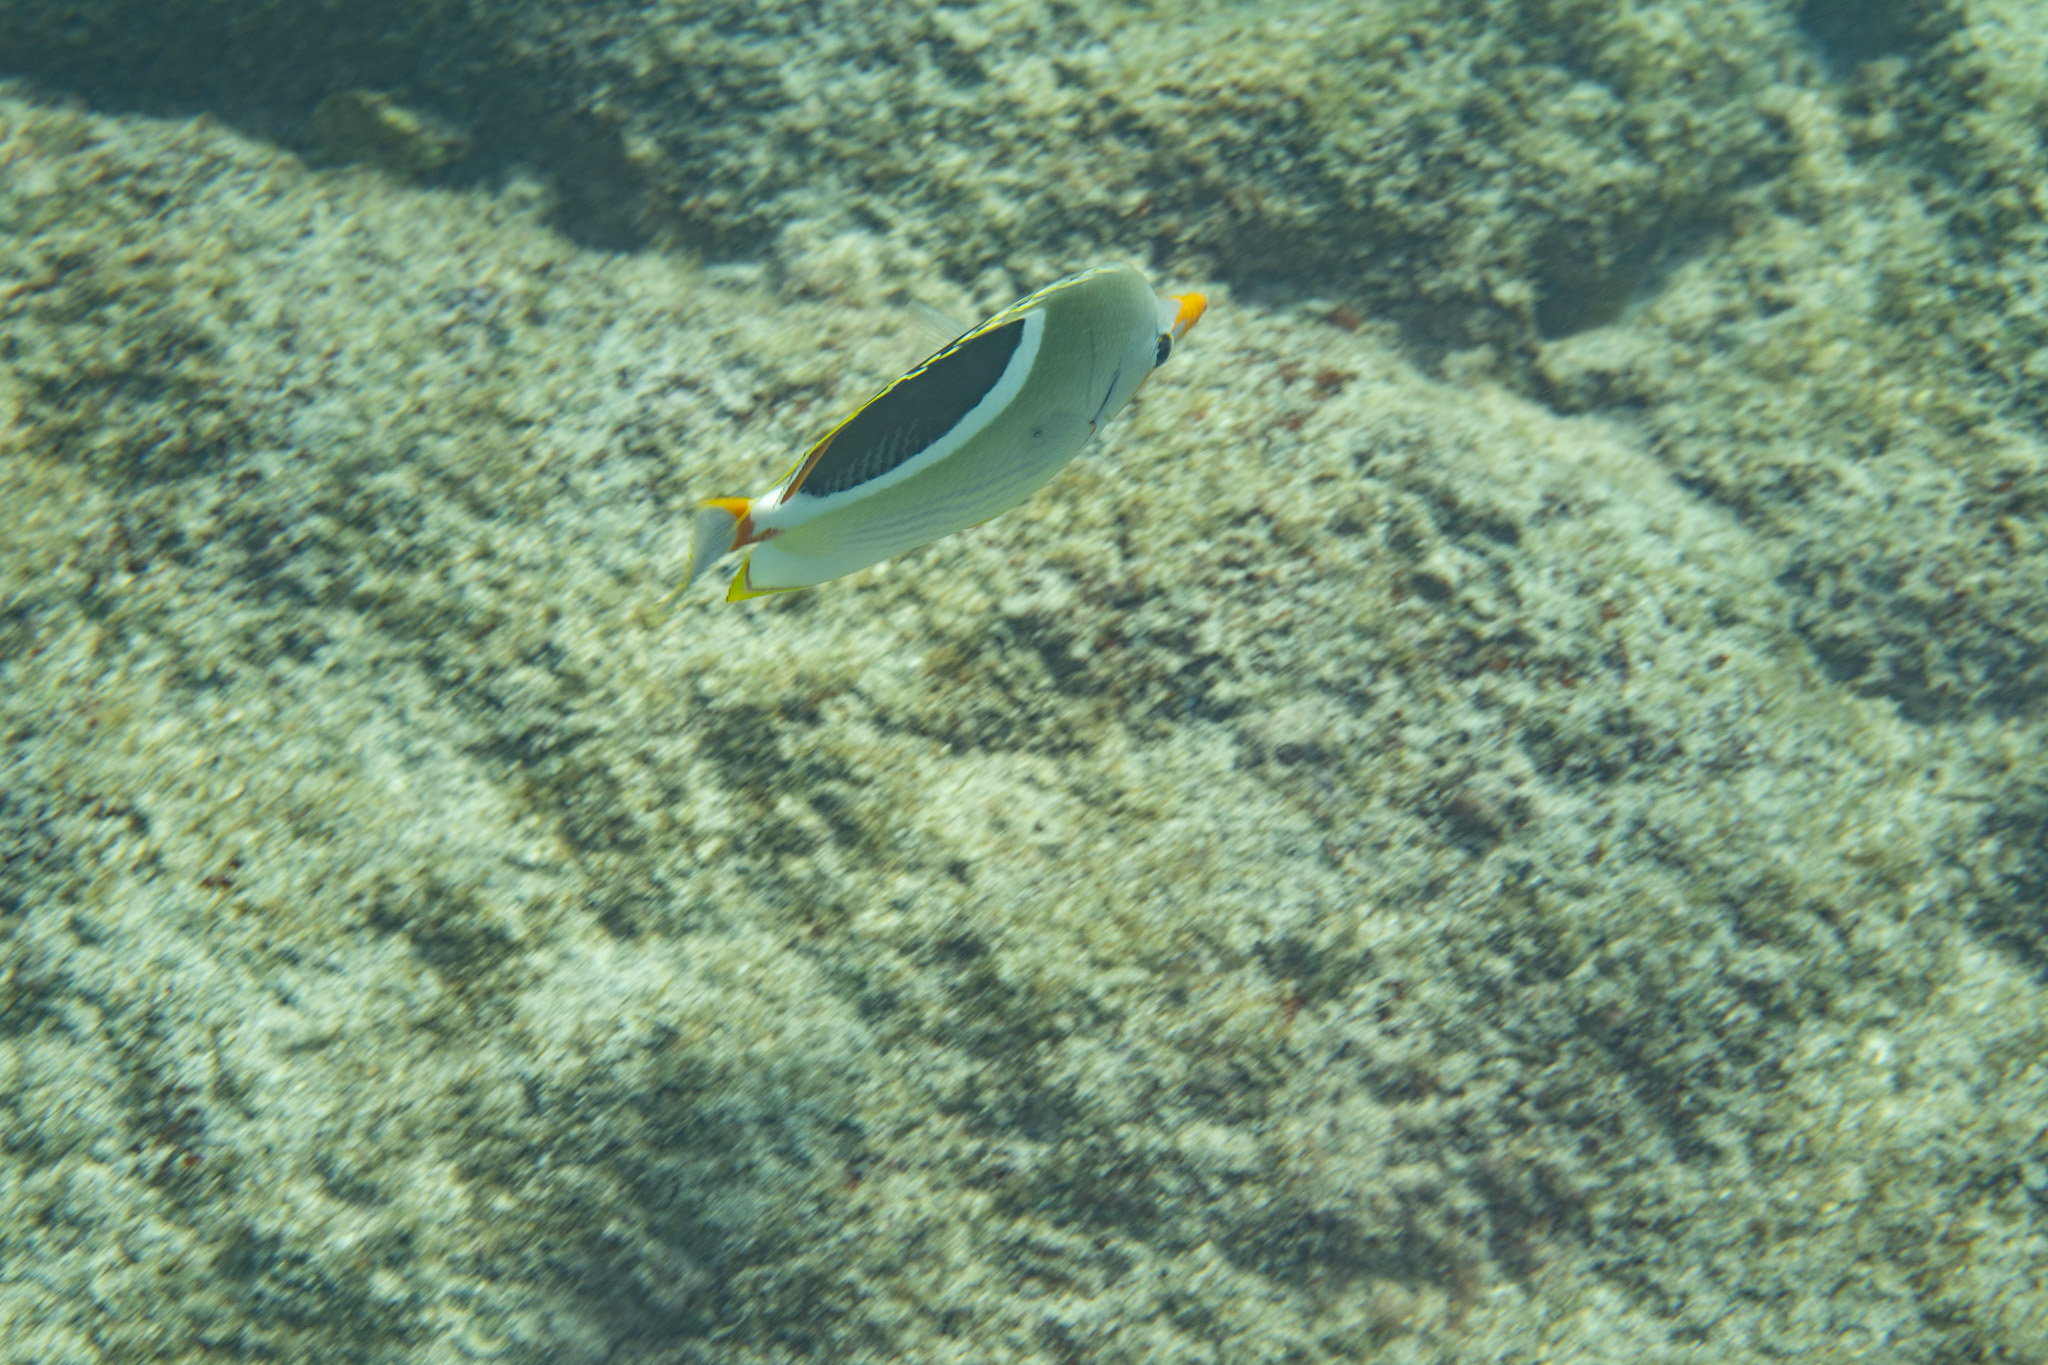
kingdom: Animalia
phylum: Chordata
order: Perciformes
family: Chaetodontidae
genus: Chaetodon
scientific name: Chaetodon ephippium
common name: Saddled butterflyfish
